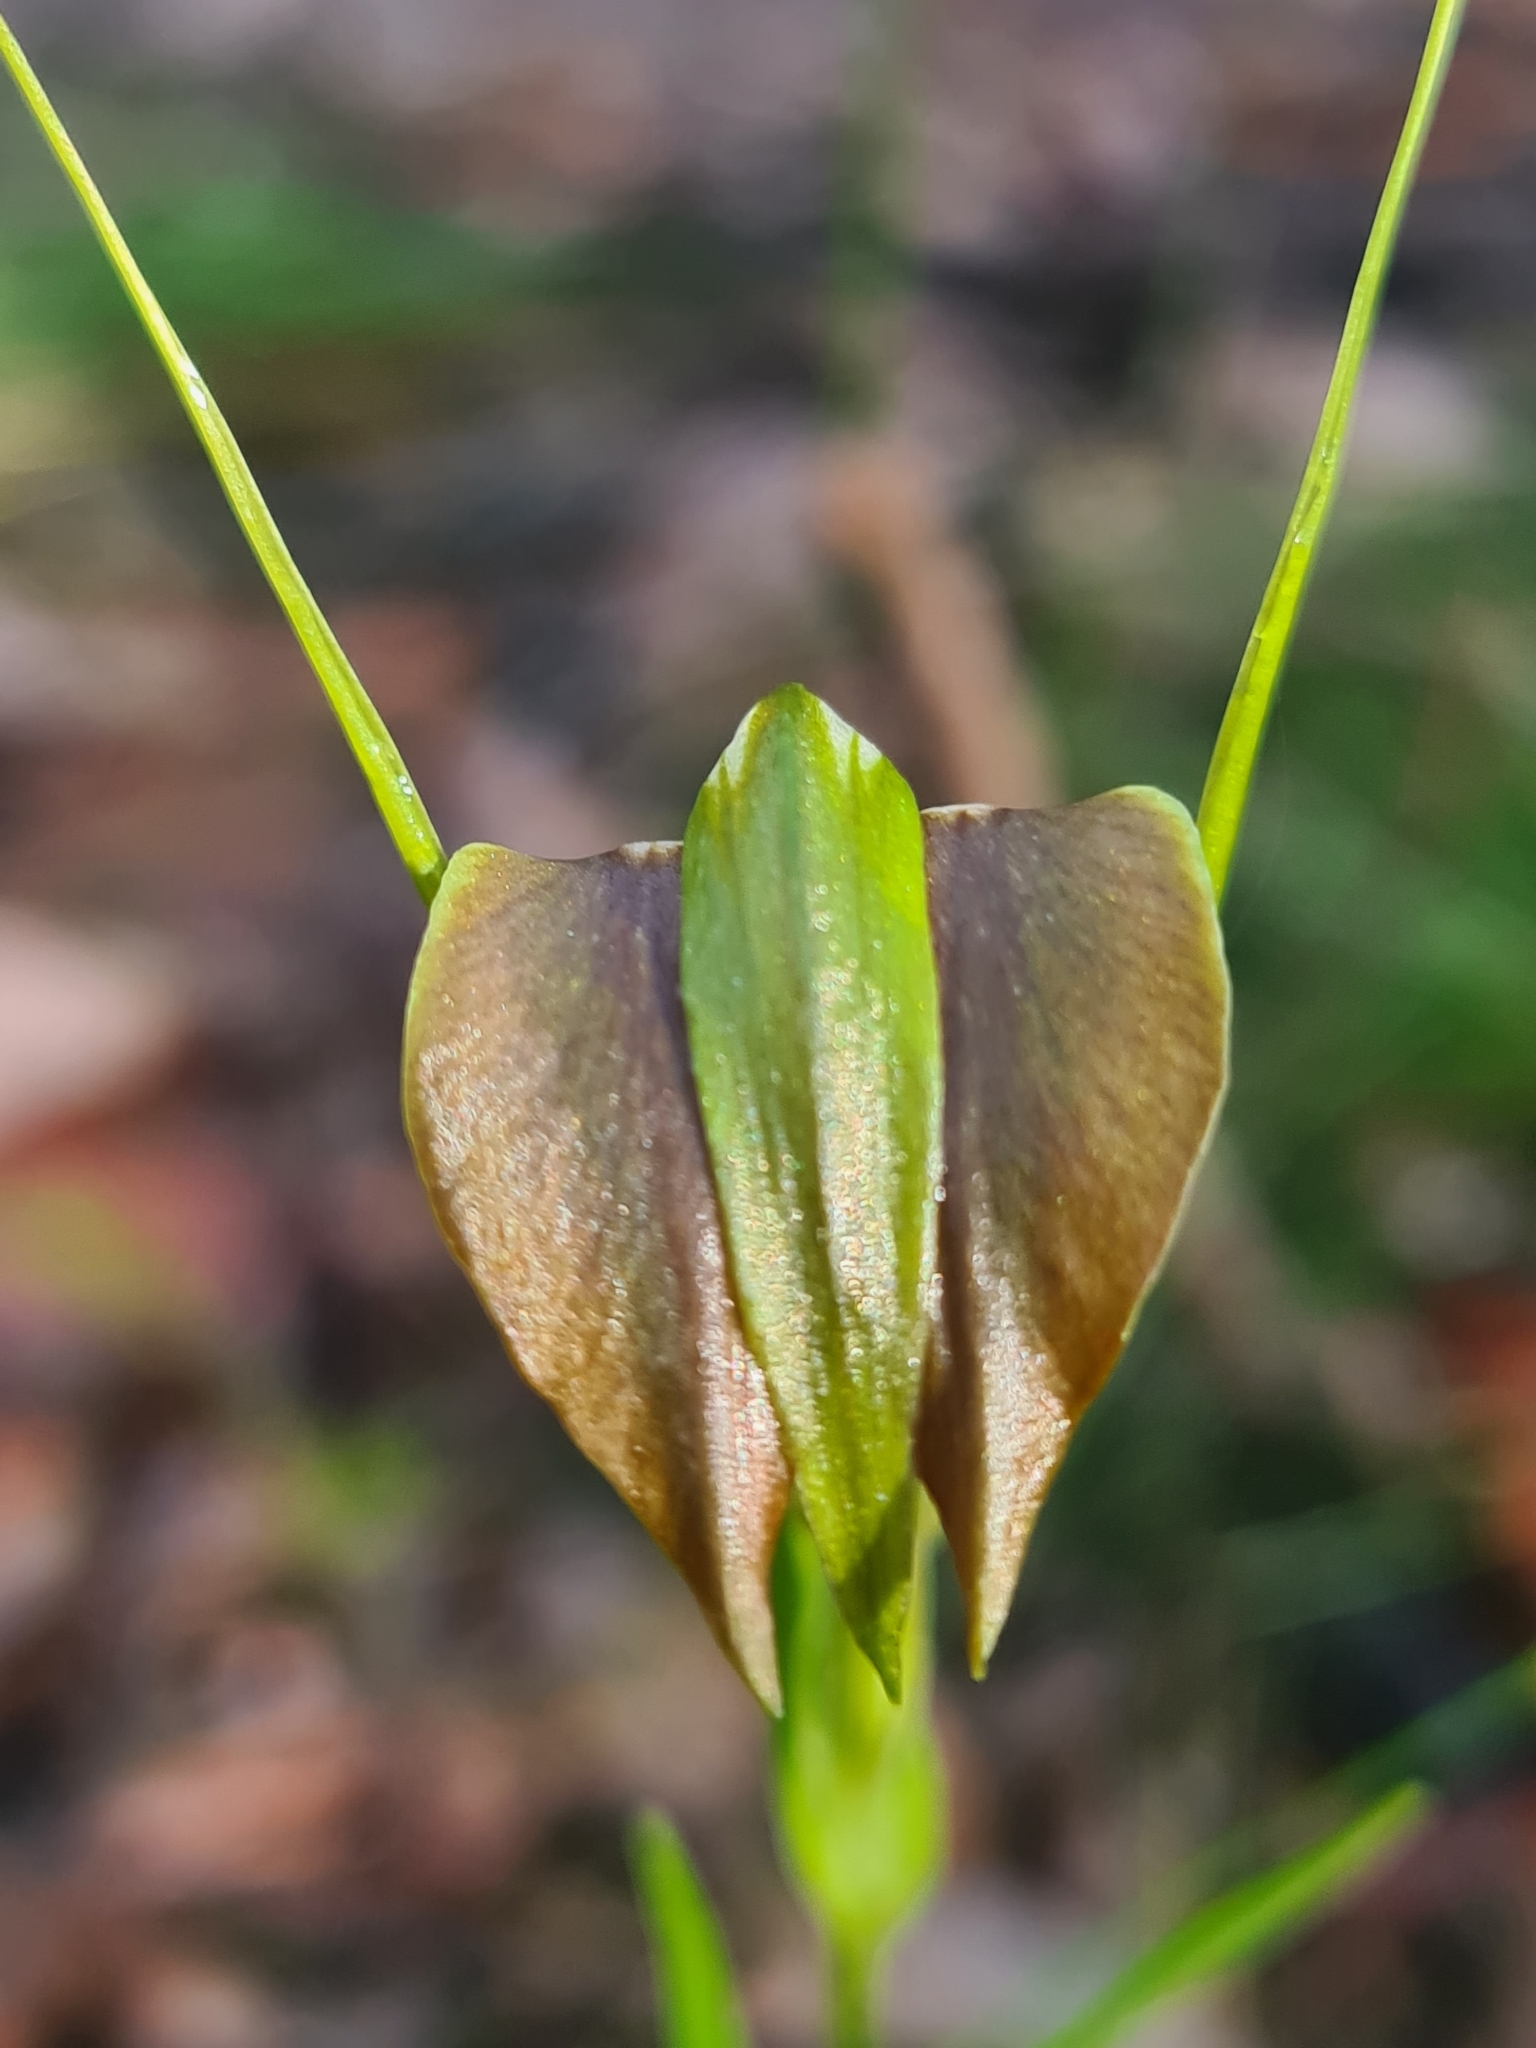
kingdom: Plantae
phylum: Tracheophyta
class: Liliopsida
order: Asparagales
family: Orchidaceae
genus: Pterostylis
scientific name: Pterostylis grandiflora
